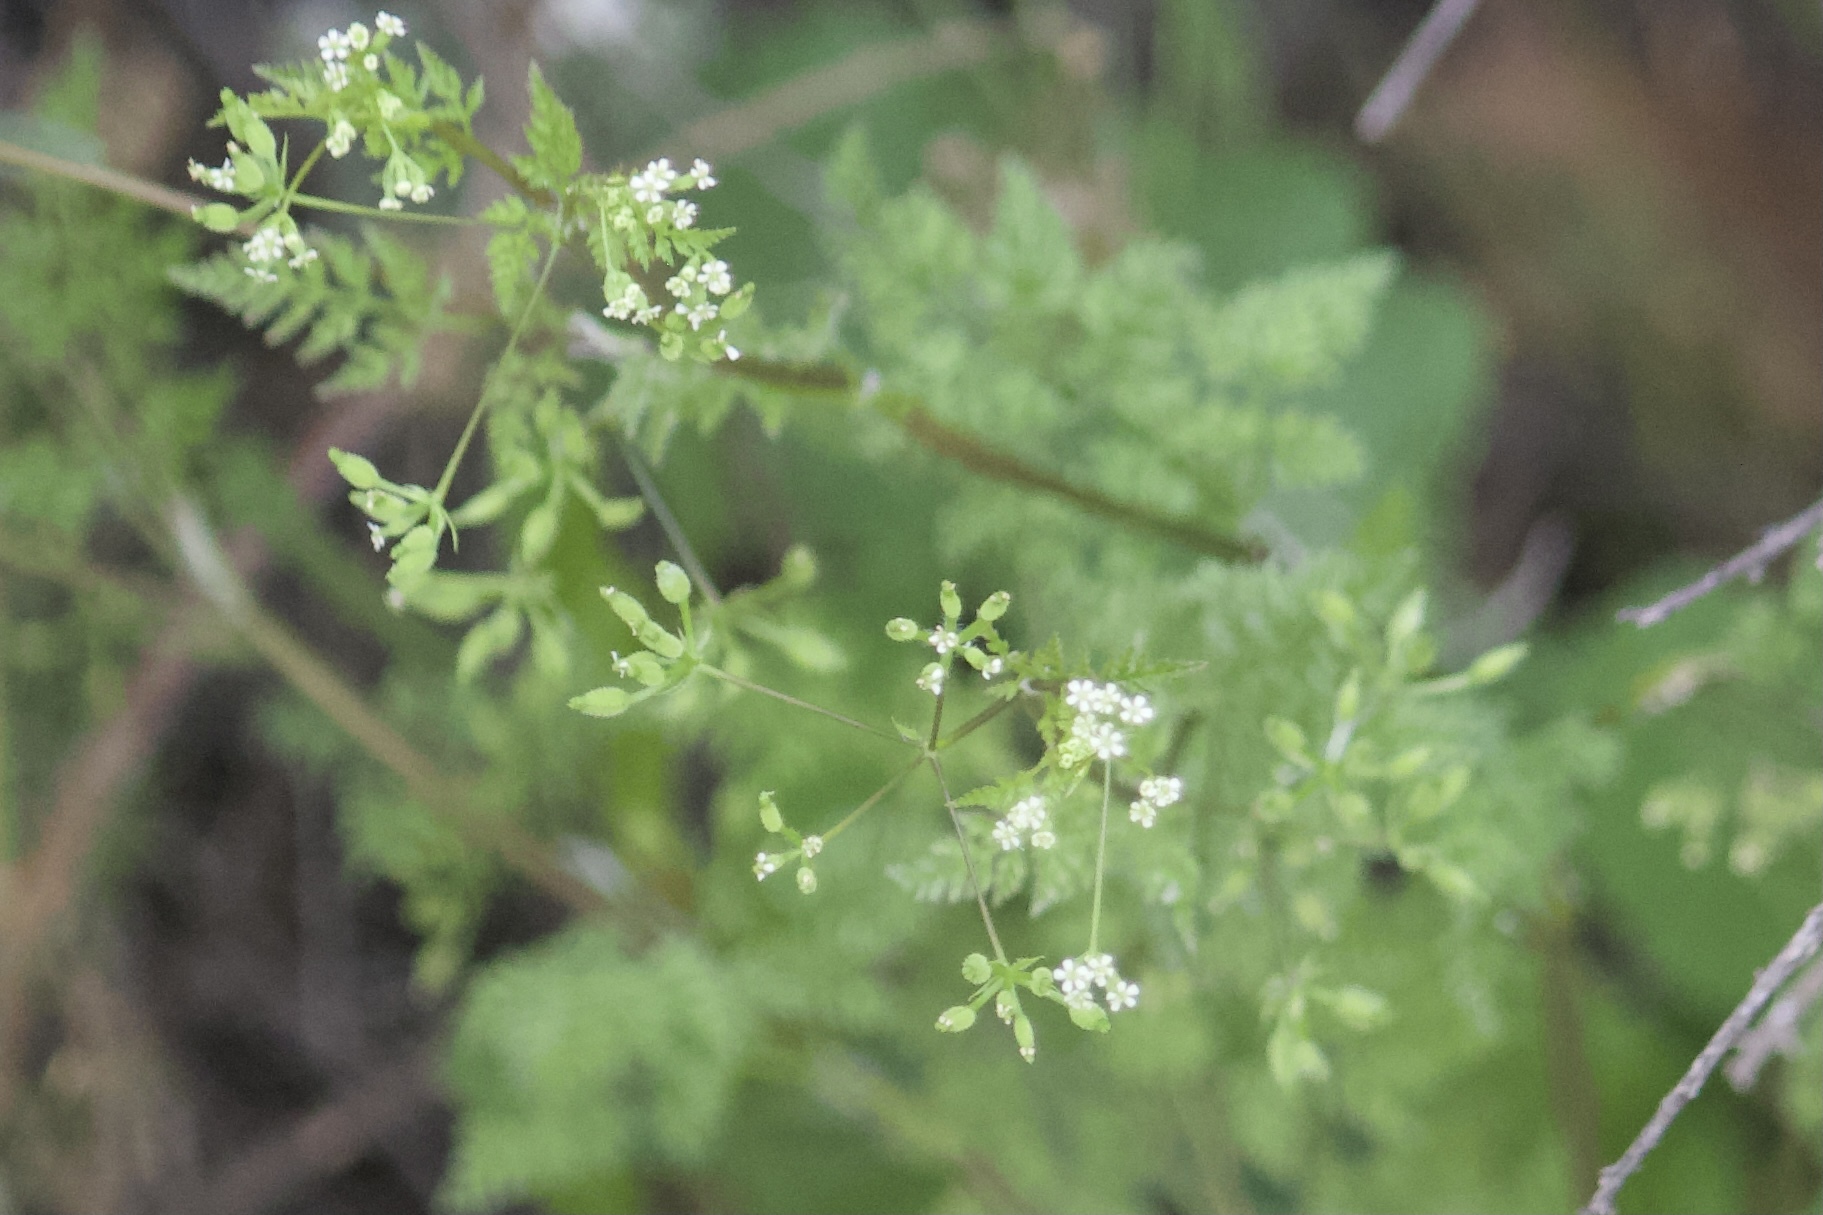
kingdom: Plantae
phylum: Tracheophyta
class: Magnoliopsida
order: Apiales
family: Apiaceae
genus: Anthriscus
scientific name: Anthriscus caucalis
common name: Bur chervil
